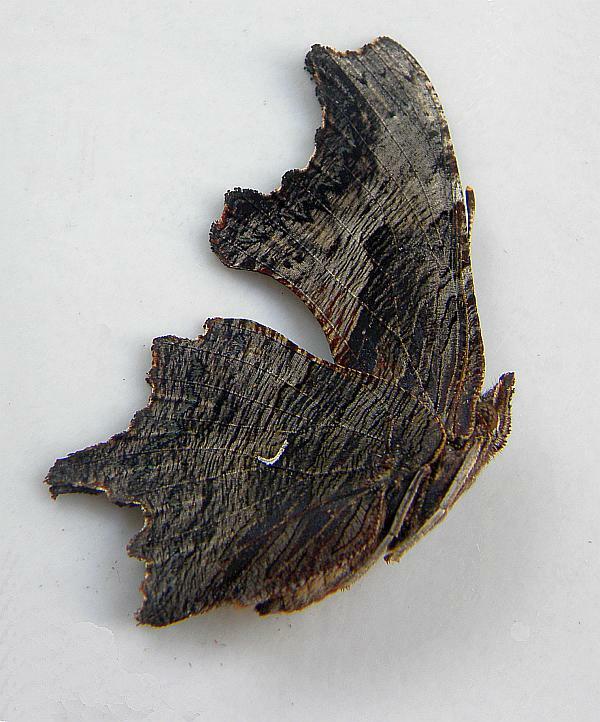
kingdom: Animalia
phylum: Arthropoda
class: Insecta
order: Lepidoptera
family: Nymphalidae
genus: Polygonia
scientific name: Polygonia progne
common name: Gray comma
